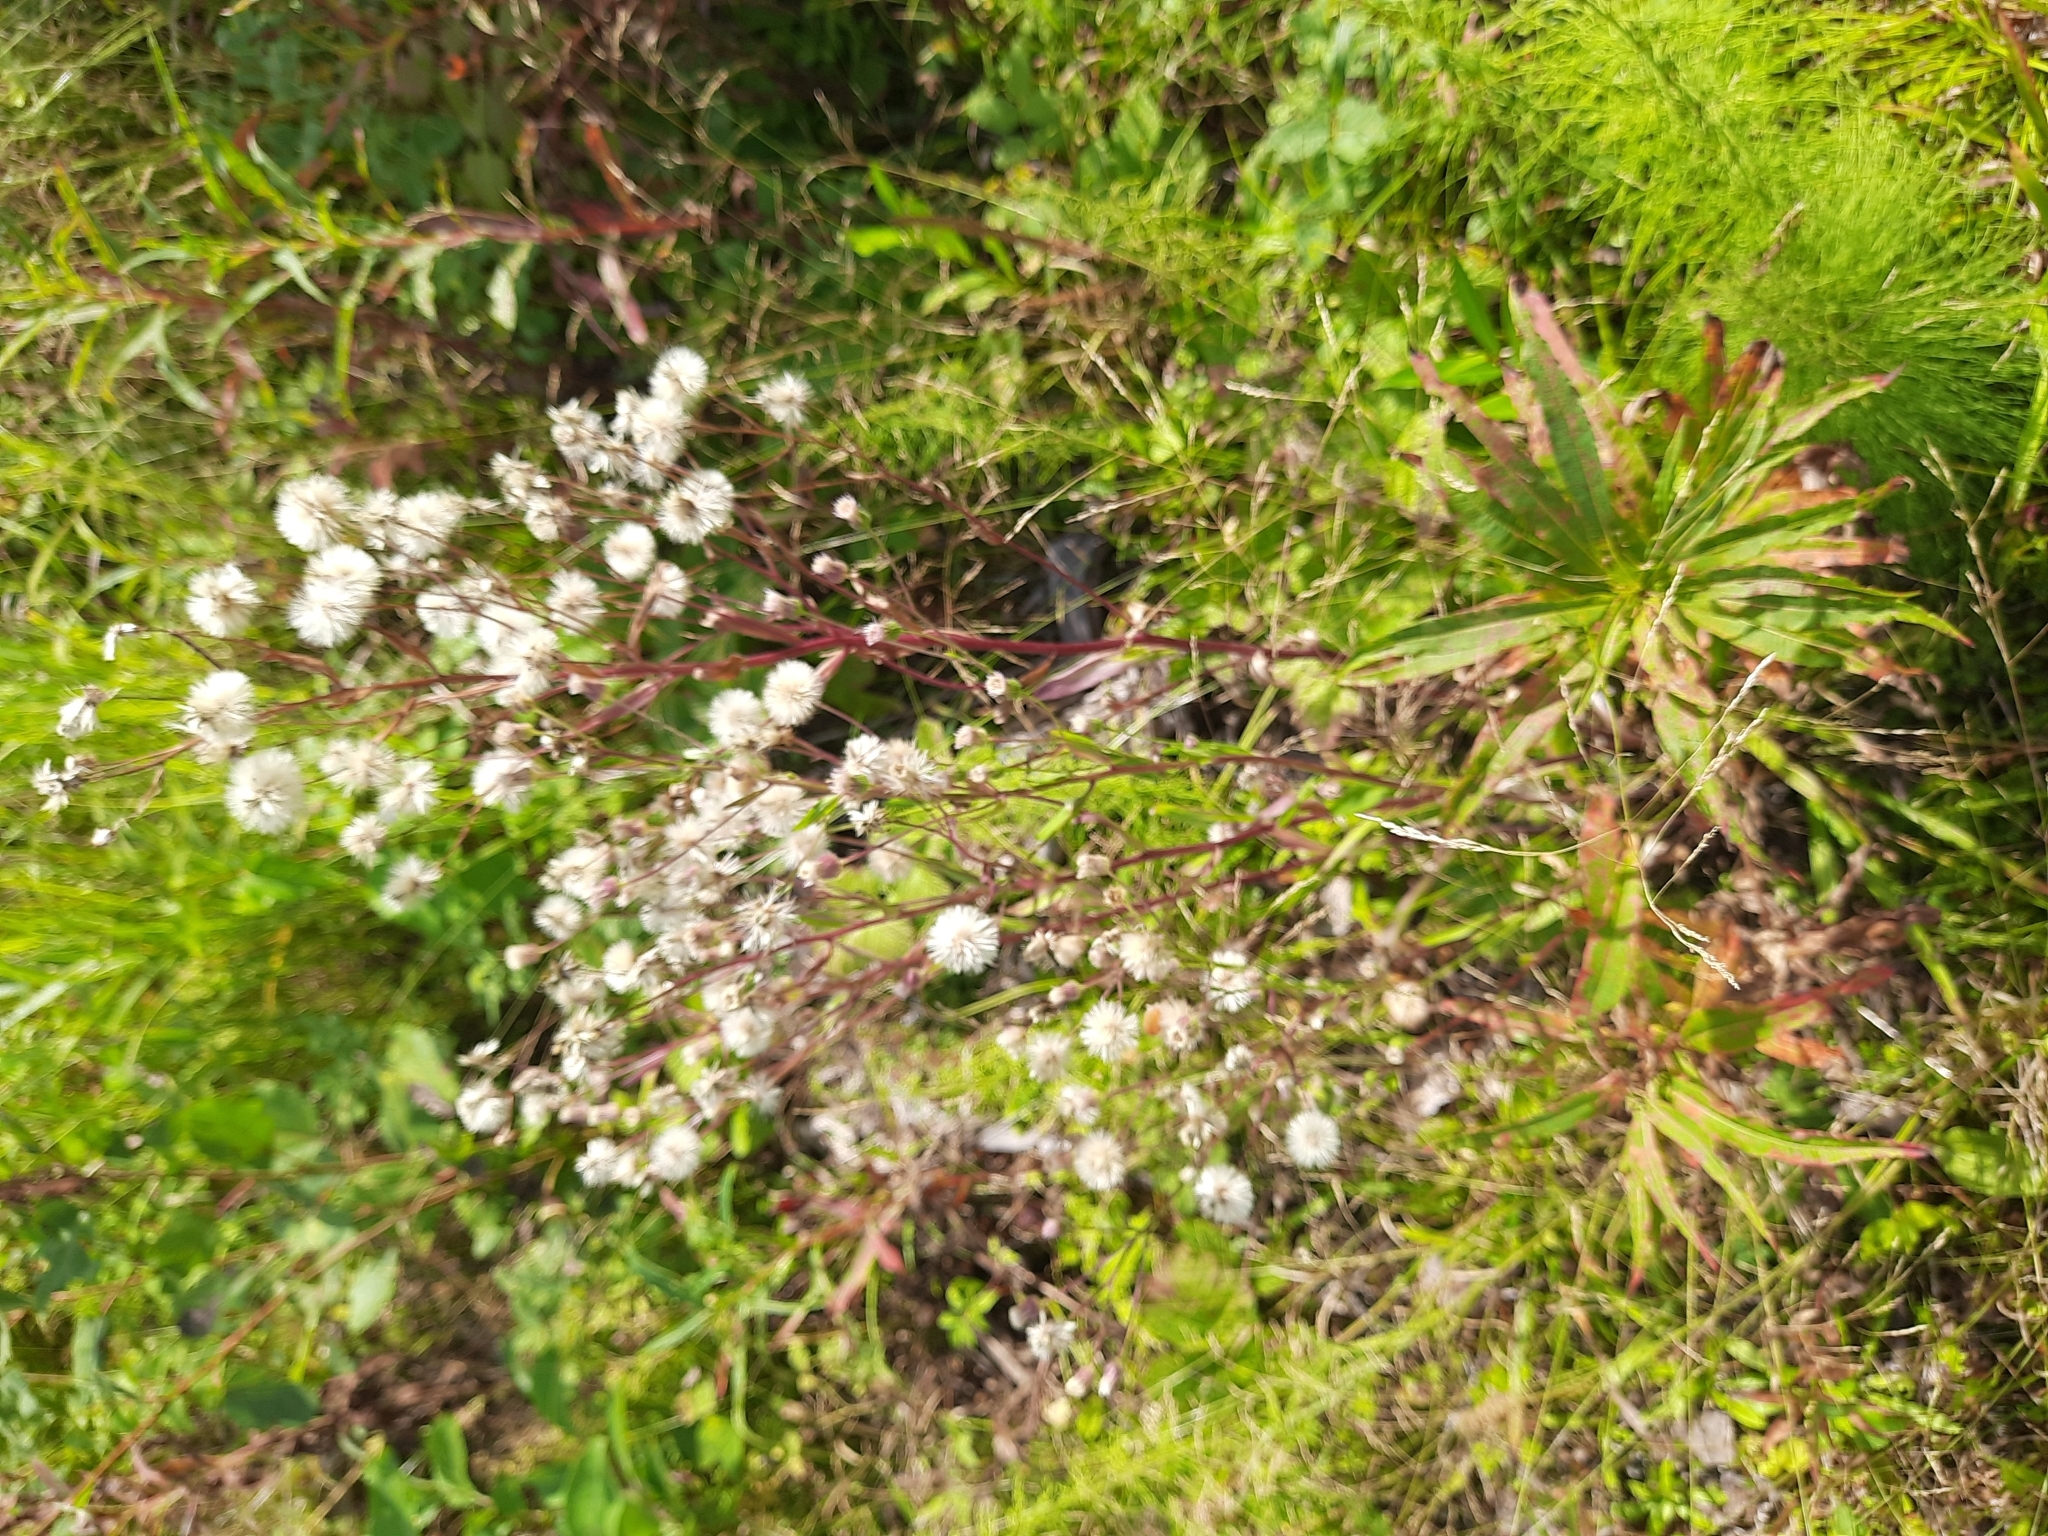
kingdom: Plantae
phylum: Tracheophyta
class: Magnoliopsida
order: Asterales
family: Asteraceae
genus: Erigeron
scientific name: Erigeron acris
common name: Blue fleabane
